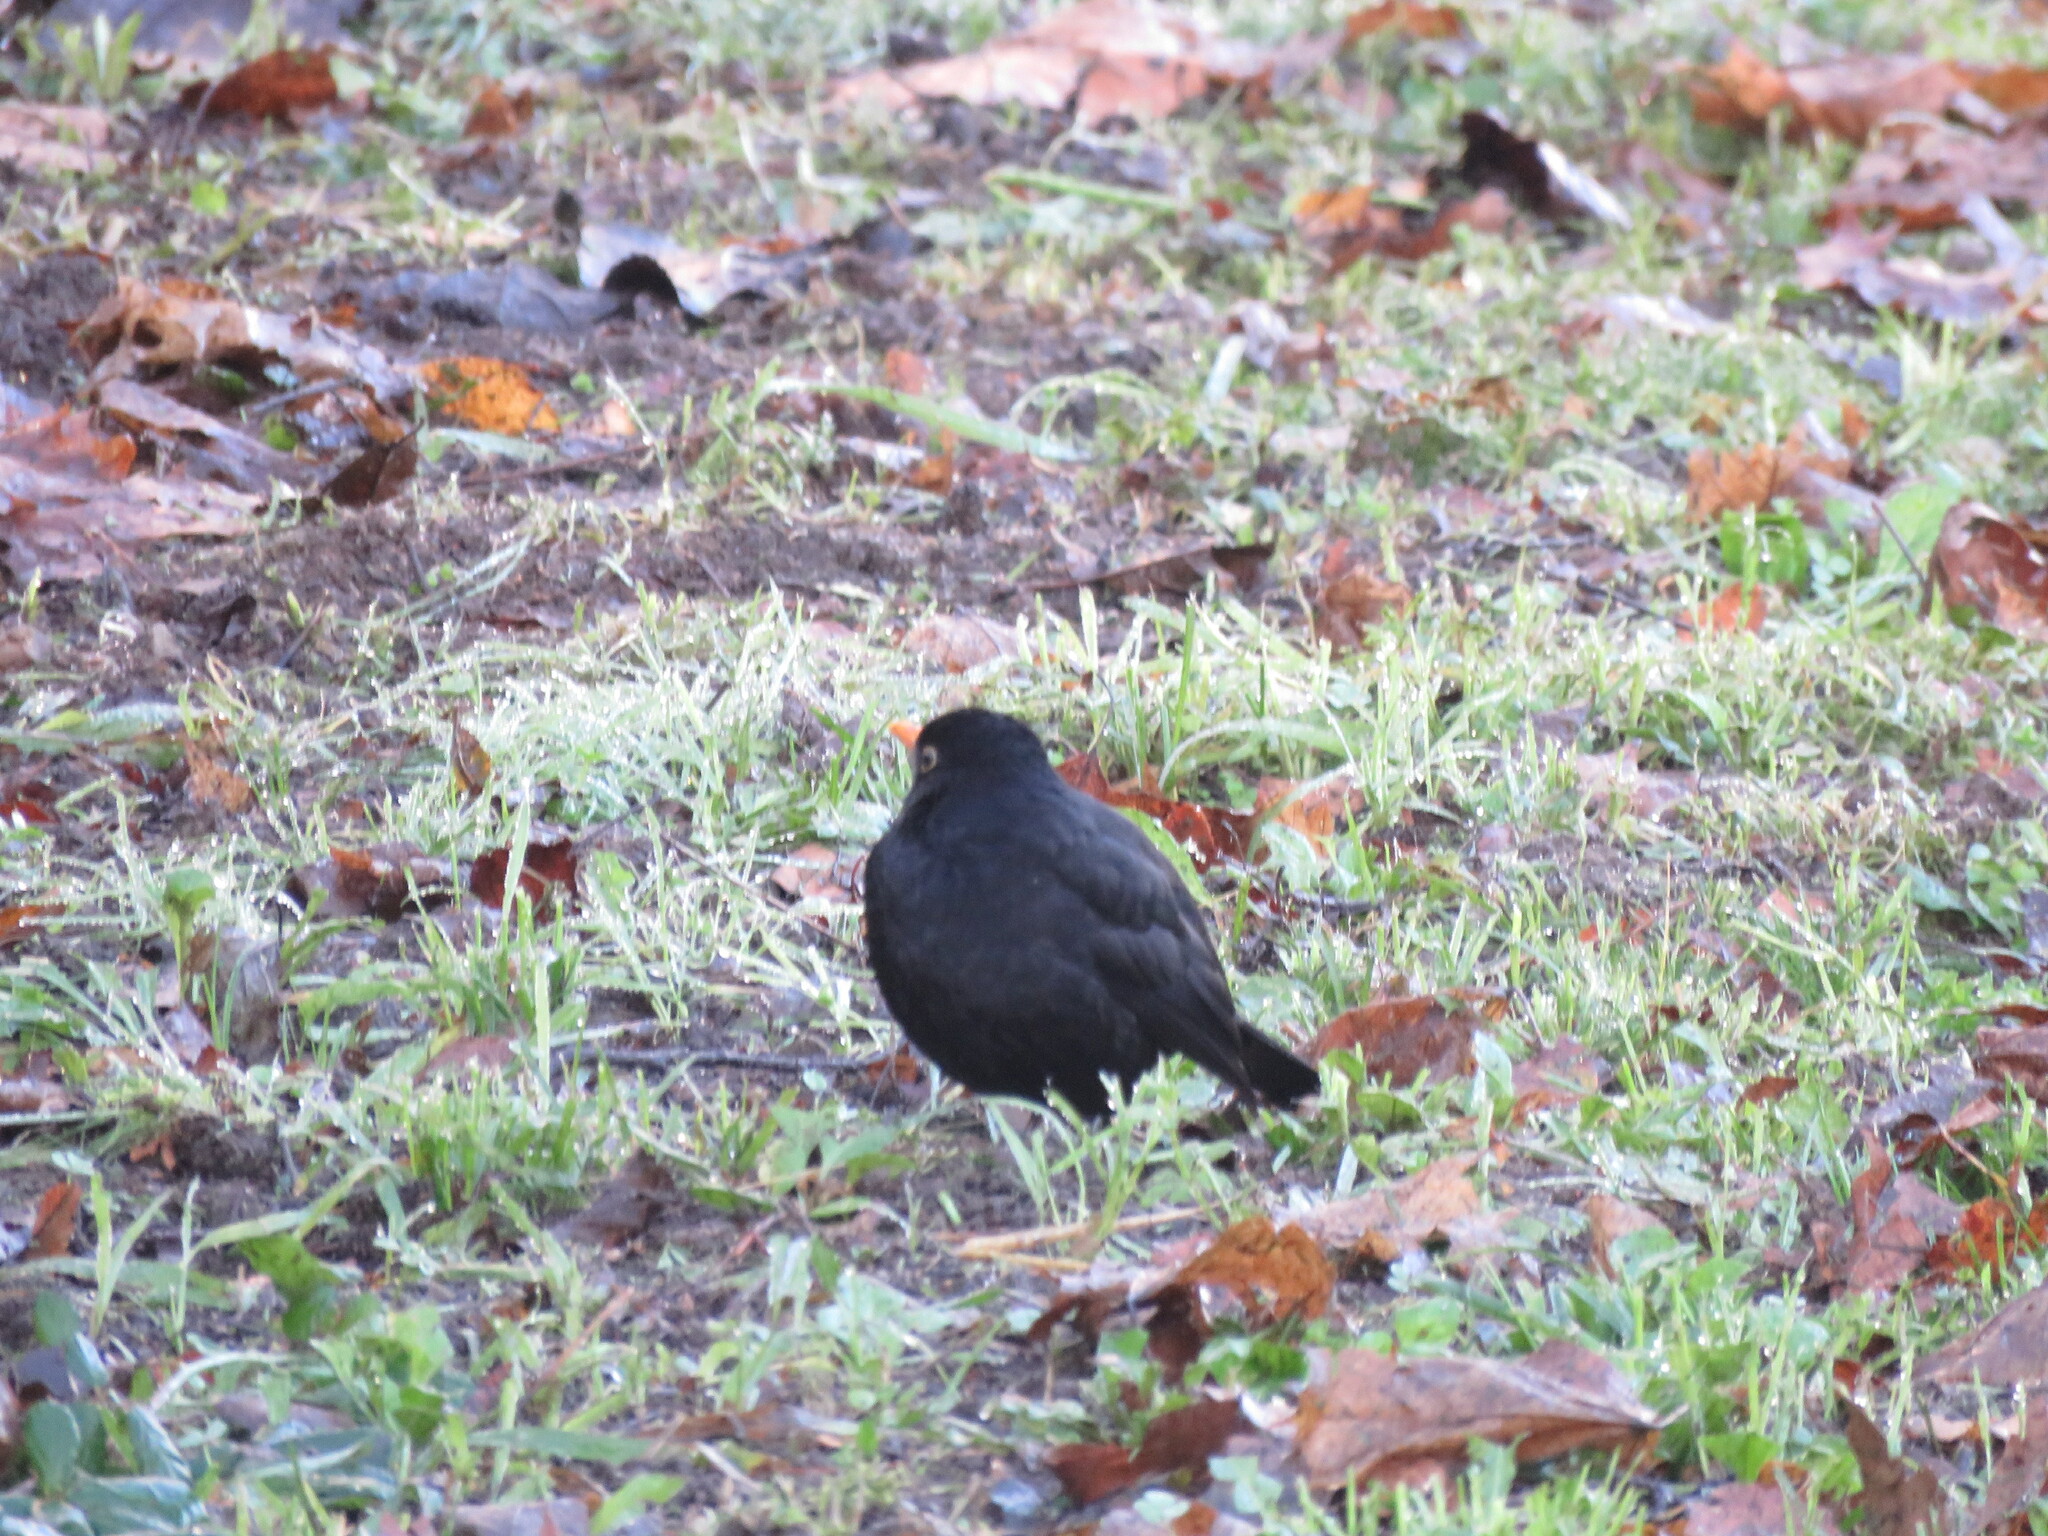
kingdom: Animalia
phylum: Chordata
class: Aves
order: Passeriformes
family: Turdidae
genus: Turdus
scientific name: Turdus merula
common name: Common blackbird
